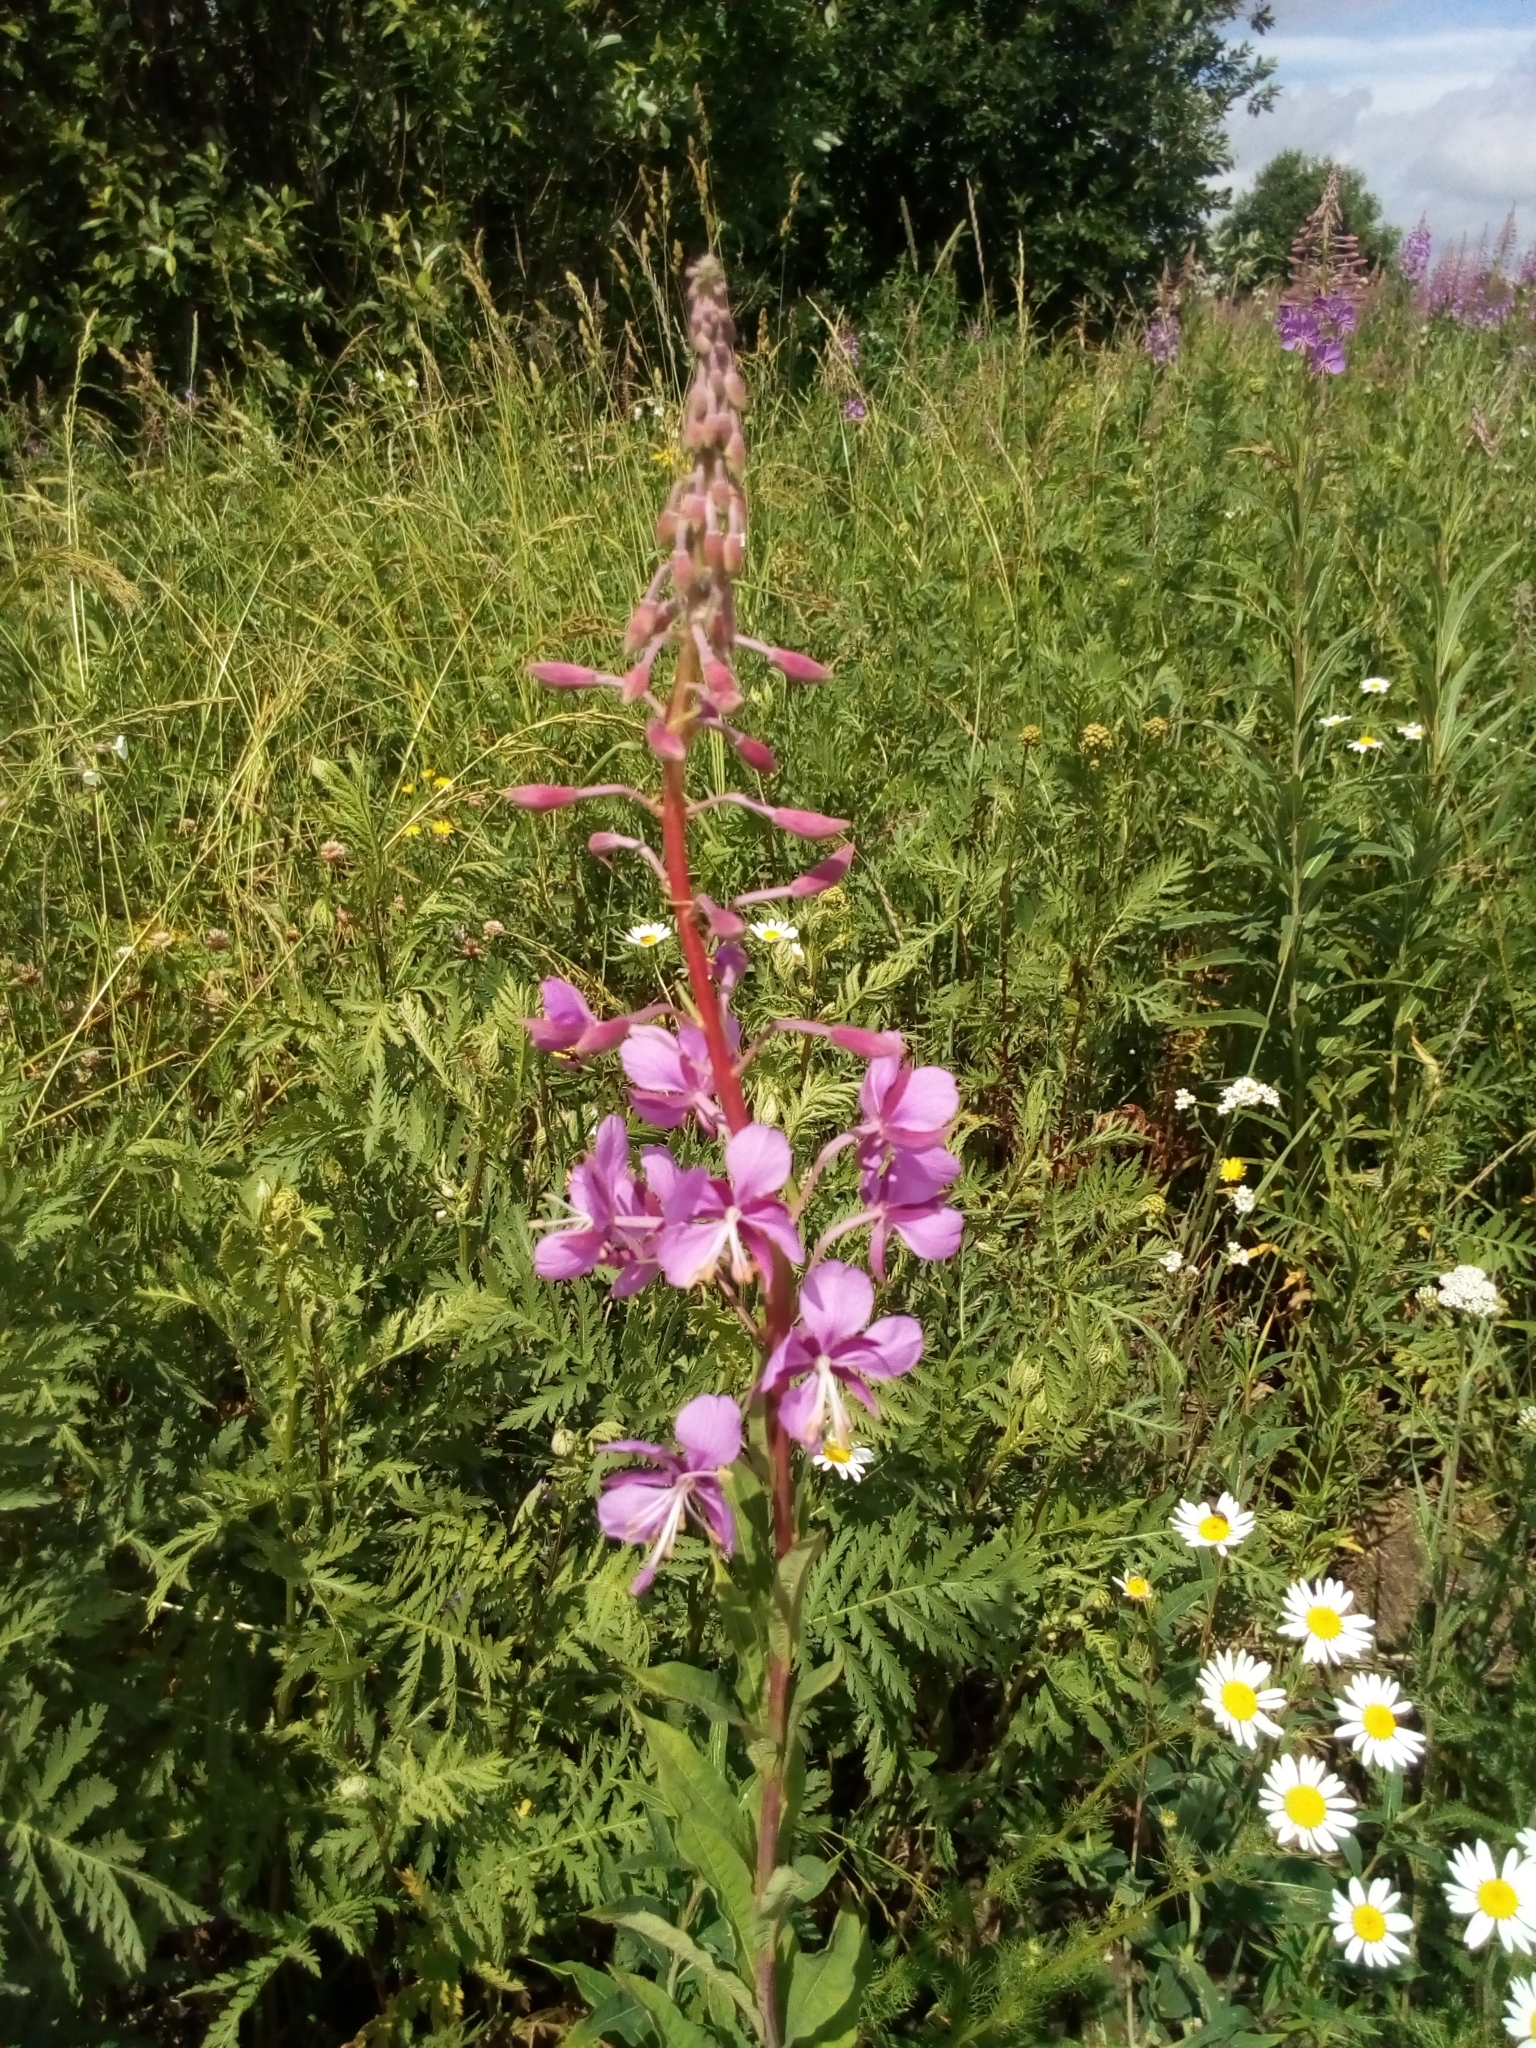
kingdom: Plantae
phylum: Tracheophyta
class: Magnoliopsida
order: Myrtales
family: Onagraceae
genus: Chamaenerion
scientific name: Chamaenerion angustifolium
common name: Fireweed
